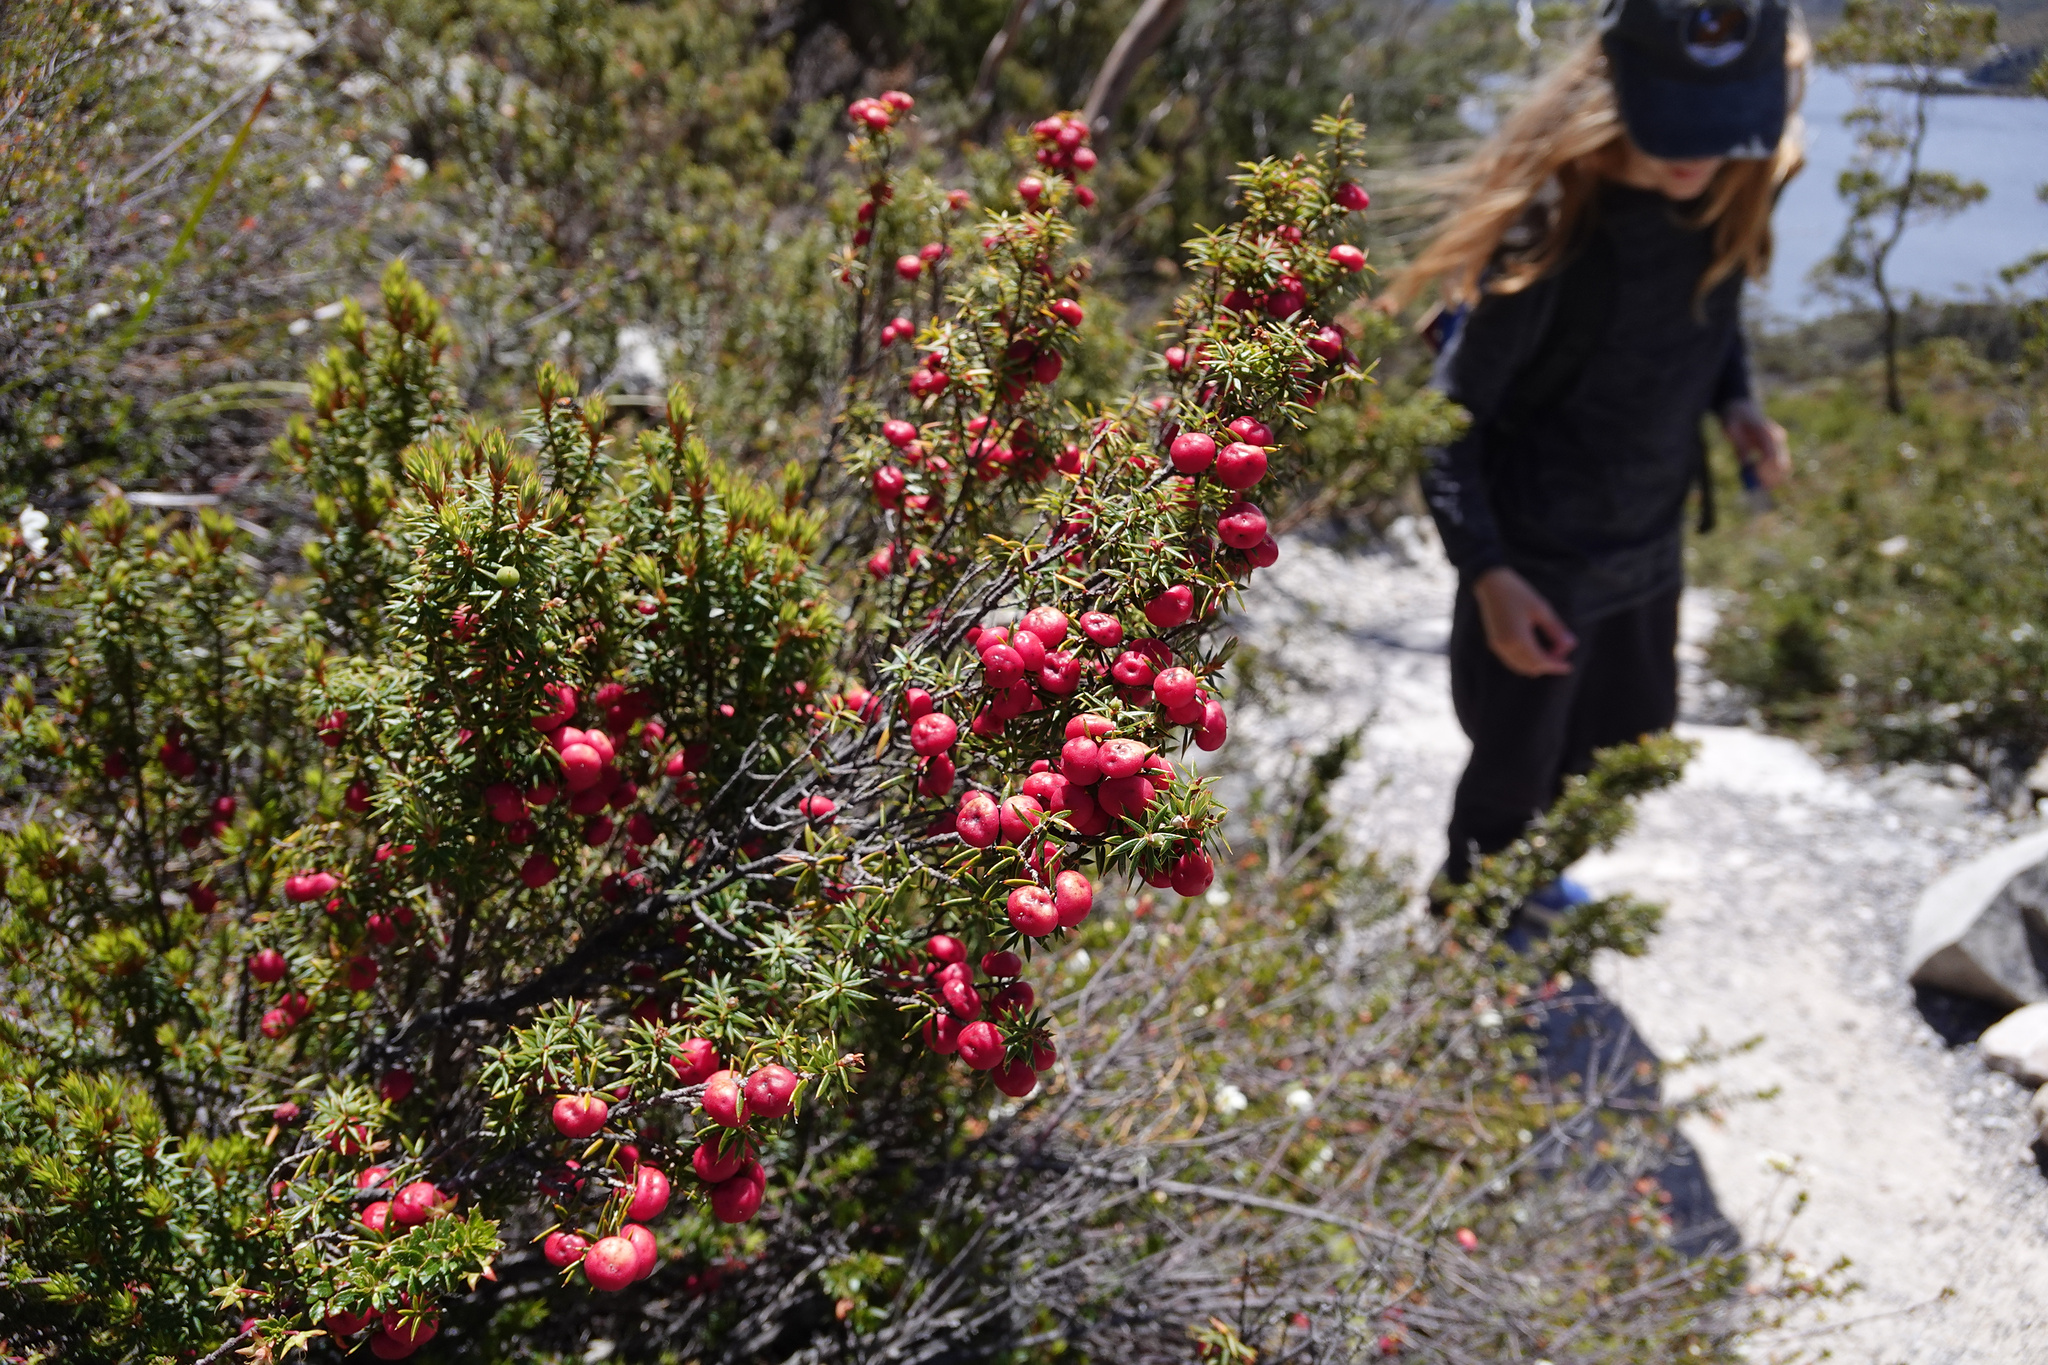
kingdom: Plantae
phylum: Tracheophyta
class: Magnoliopsida
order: Ericales
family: Ericaceae
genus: Leptecophylla
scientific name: Leptecophylla parvifolia
